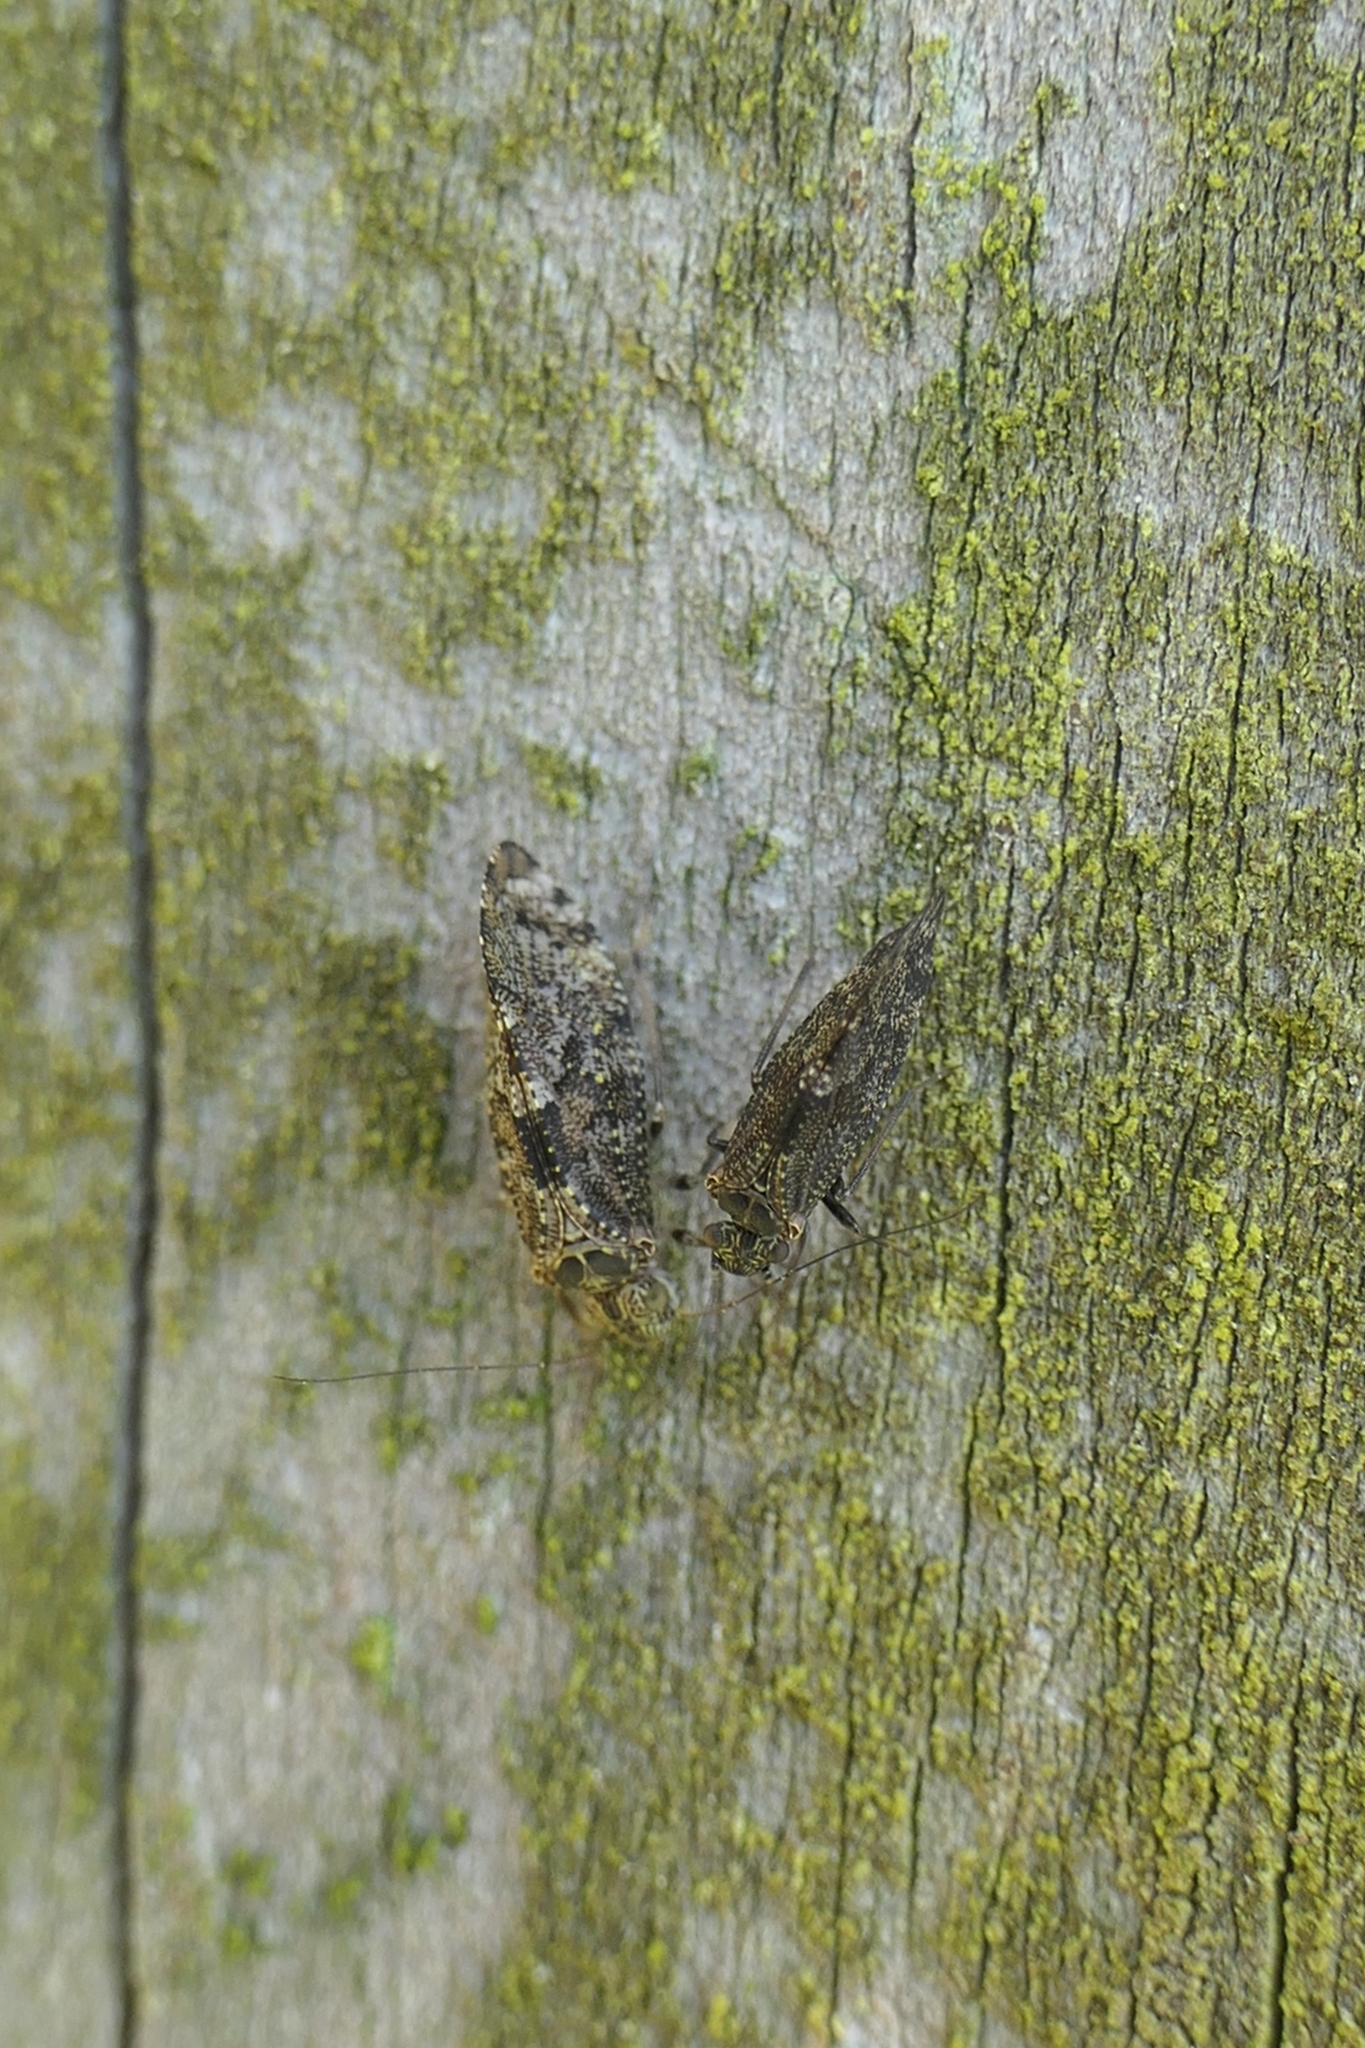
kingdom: Animalia
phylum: Arthropoda
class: Insecta
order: Psocodea
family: Myopsocidae
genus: Nimbopsocus
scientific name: Nimbopsocus australis
